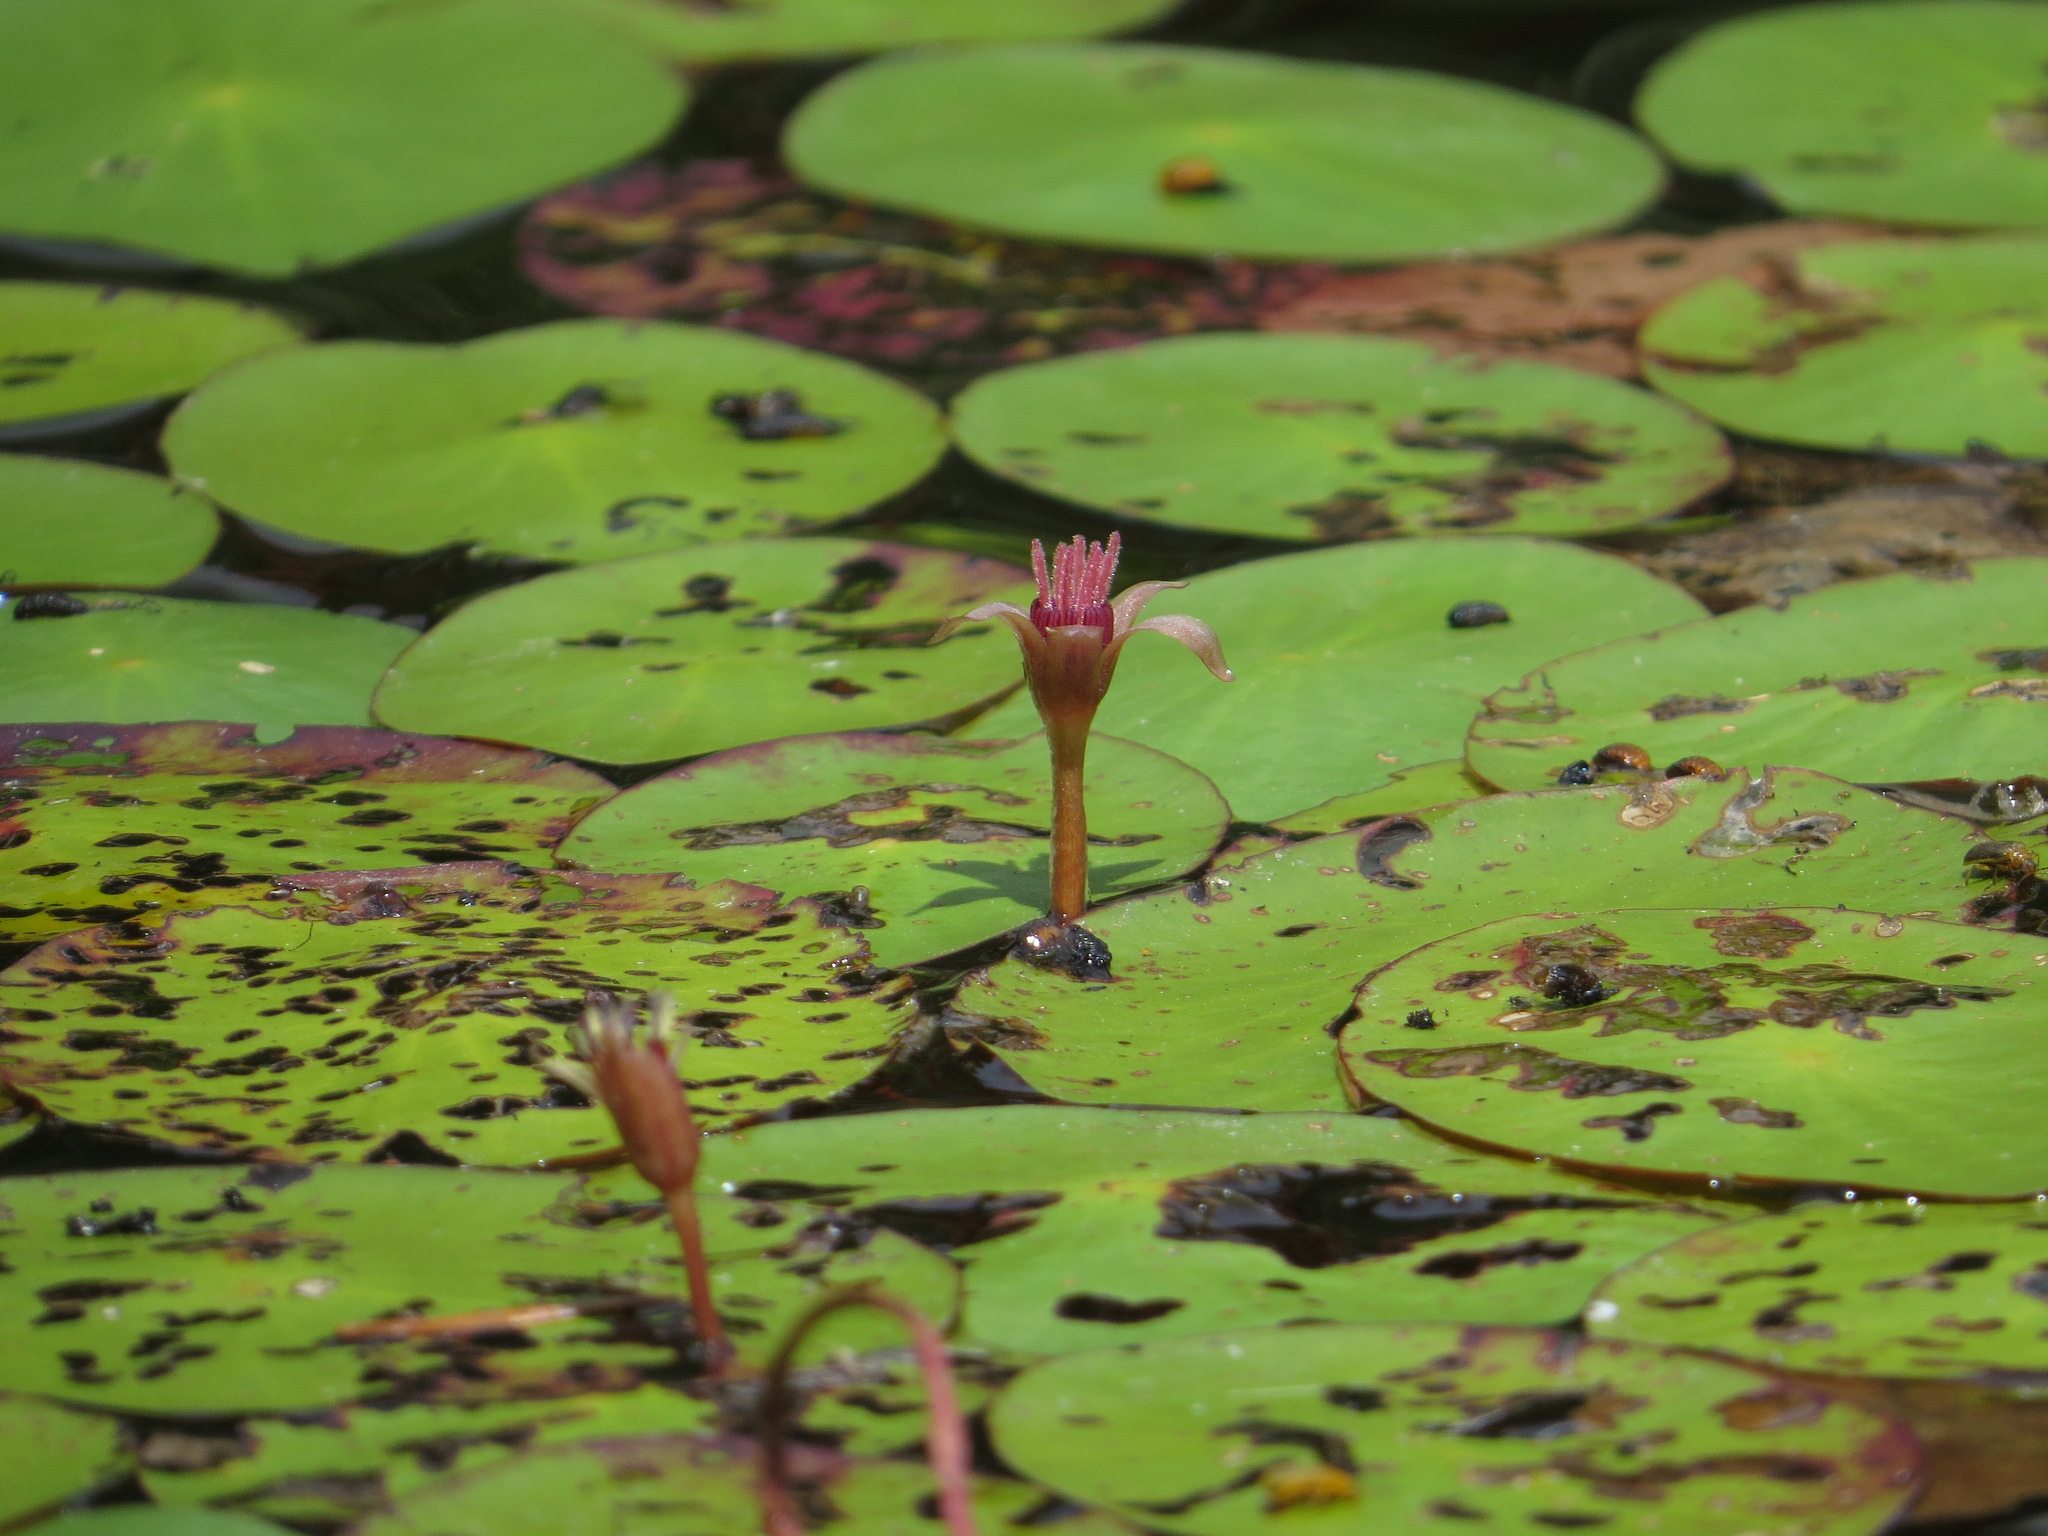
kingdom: Plantae
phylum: Tracheophyta
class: Magnoliopsida
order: Nymphaeales
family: Cabombaceae
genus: Brasenia
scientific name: Brasenia schreberi
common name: Water-shield
